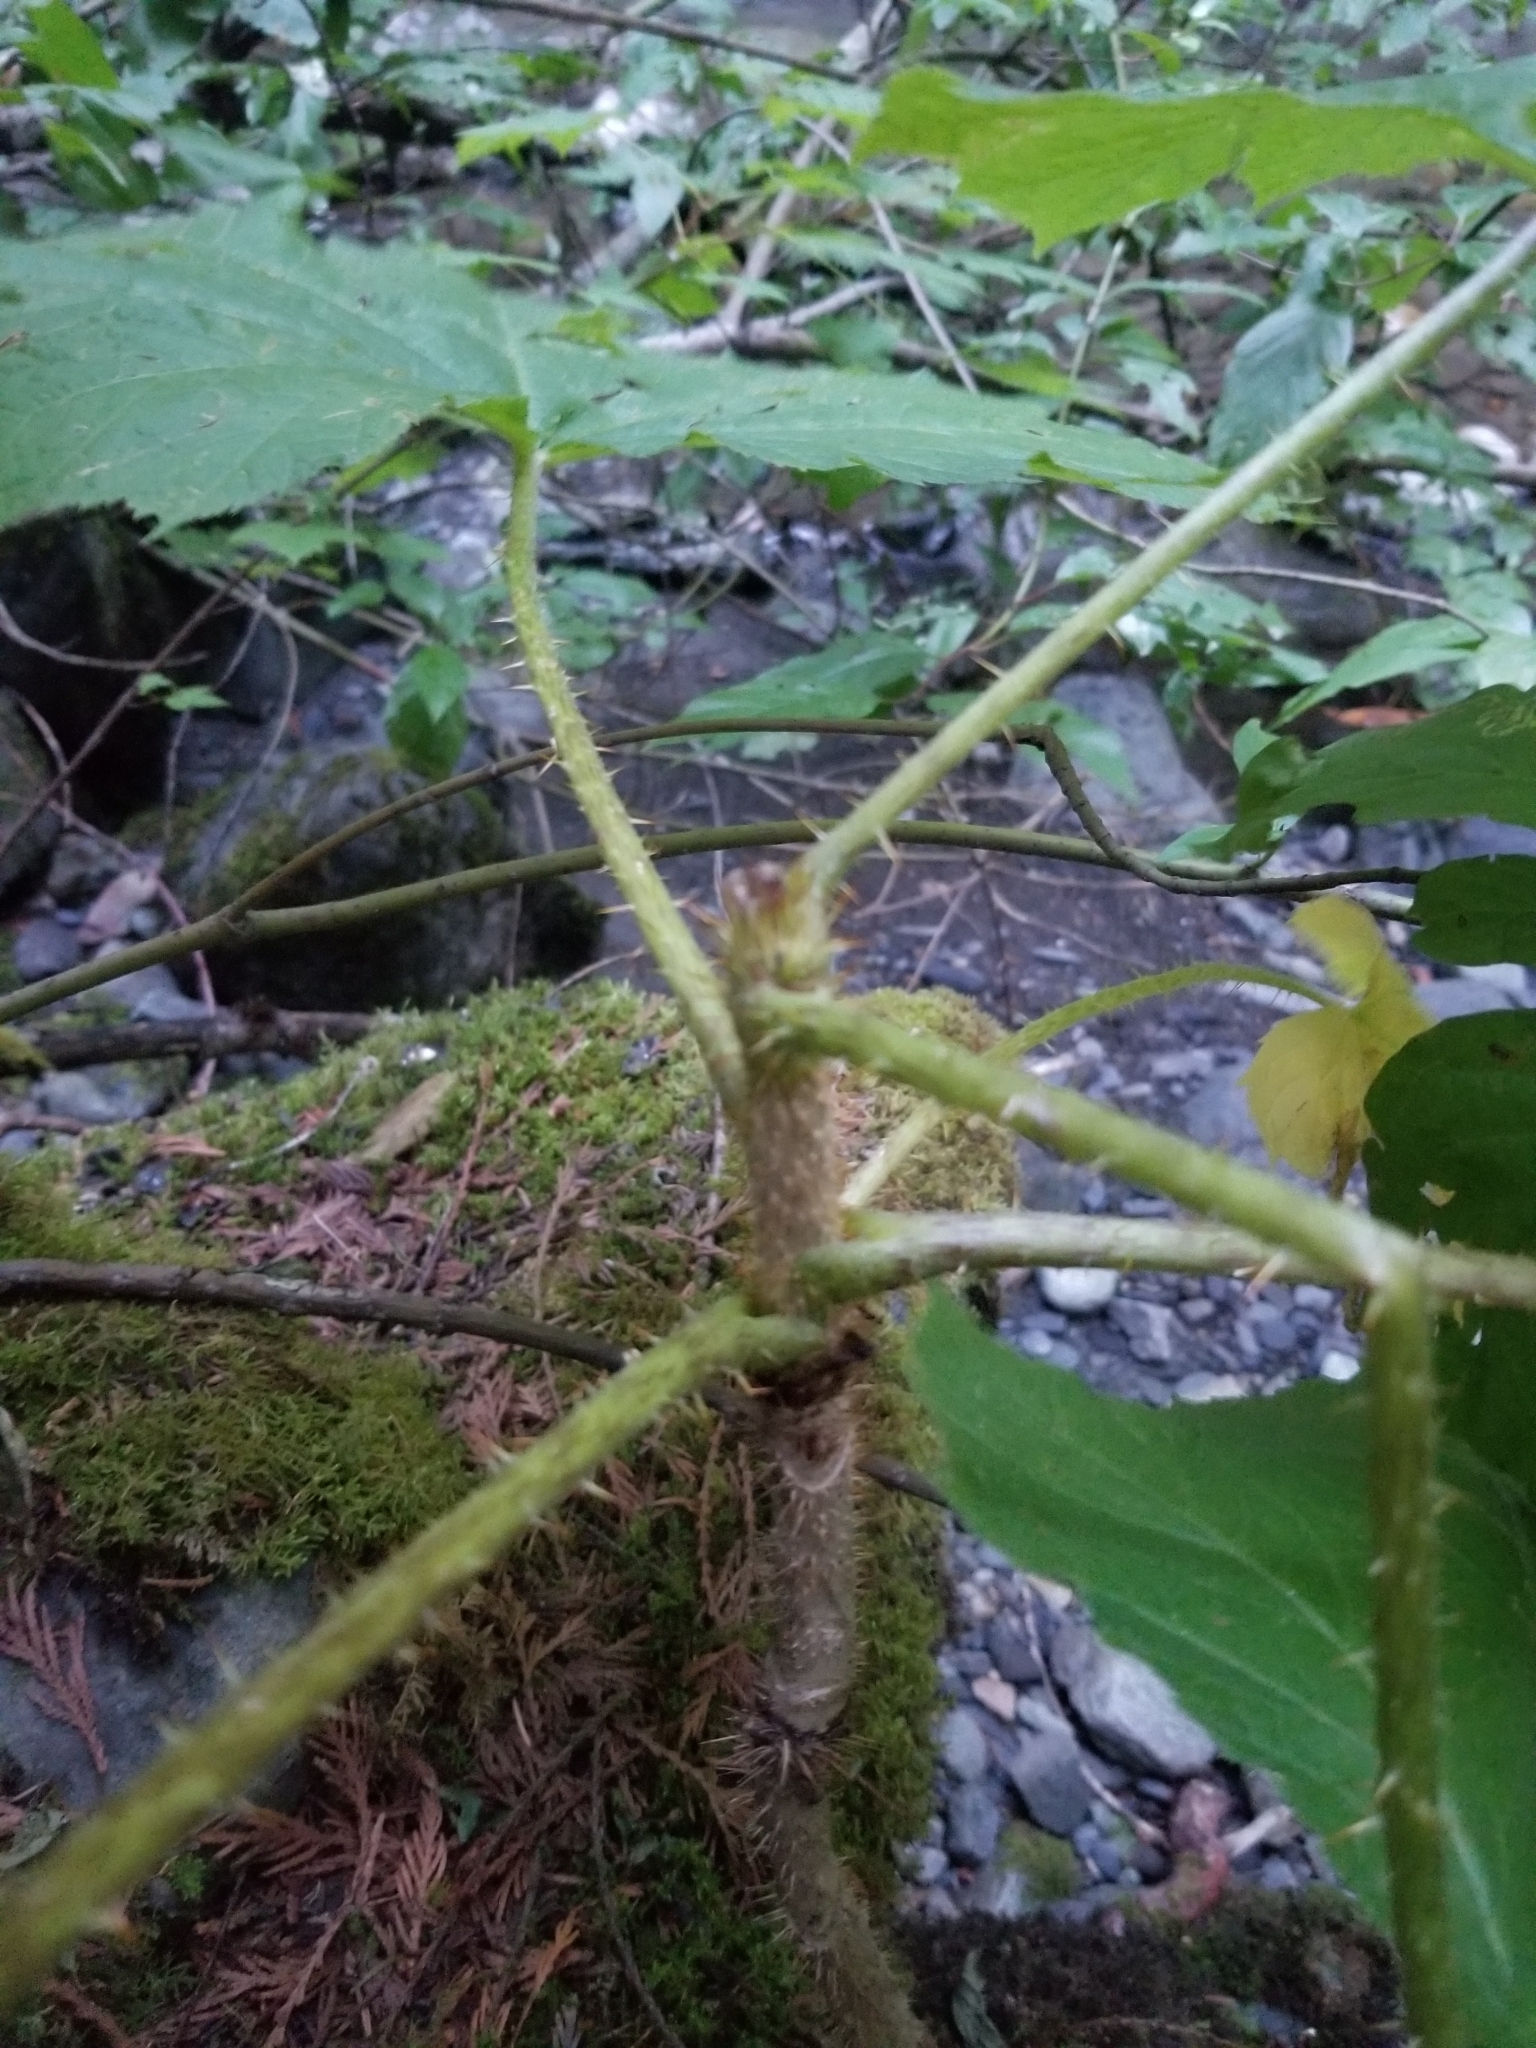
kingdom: Plantae
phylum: Tracheophyta
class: Magnoliopsida
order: Apiales
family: Araliaceae
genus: Oplopanax
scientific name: Oplopanax horridus
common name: Devil's walking-stick
